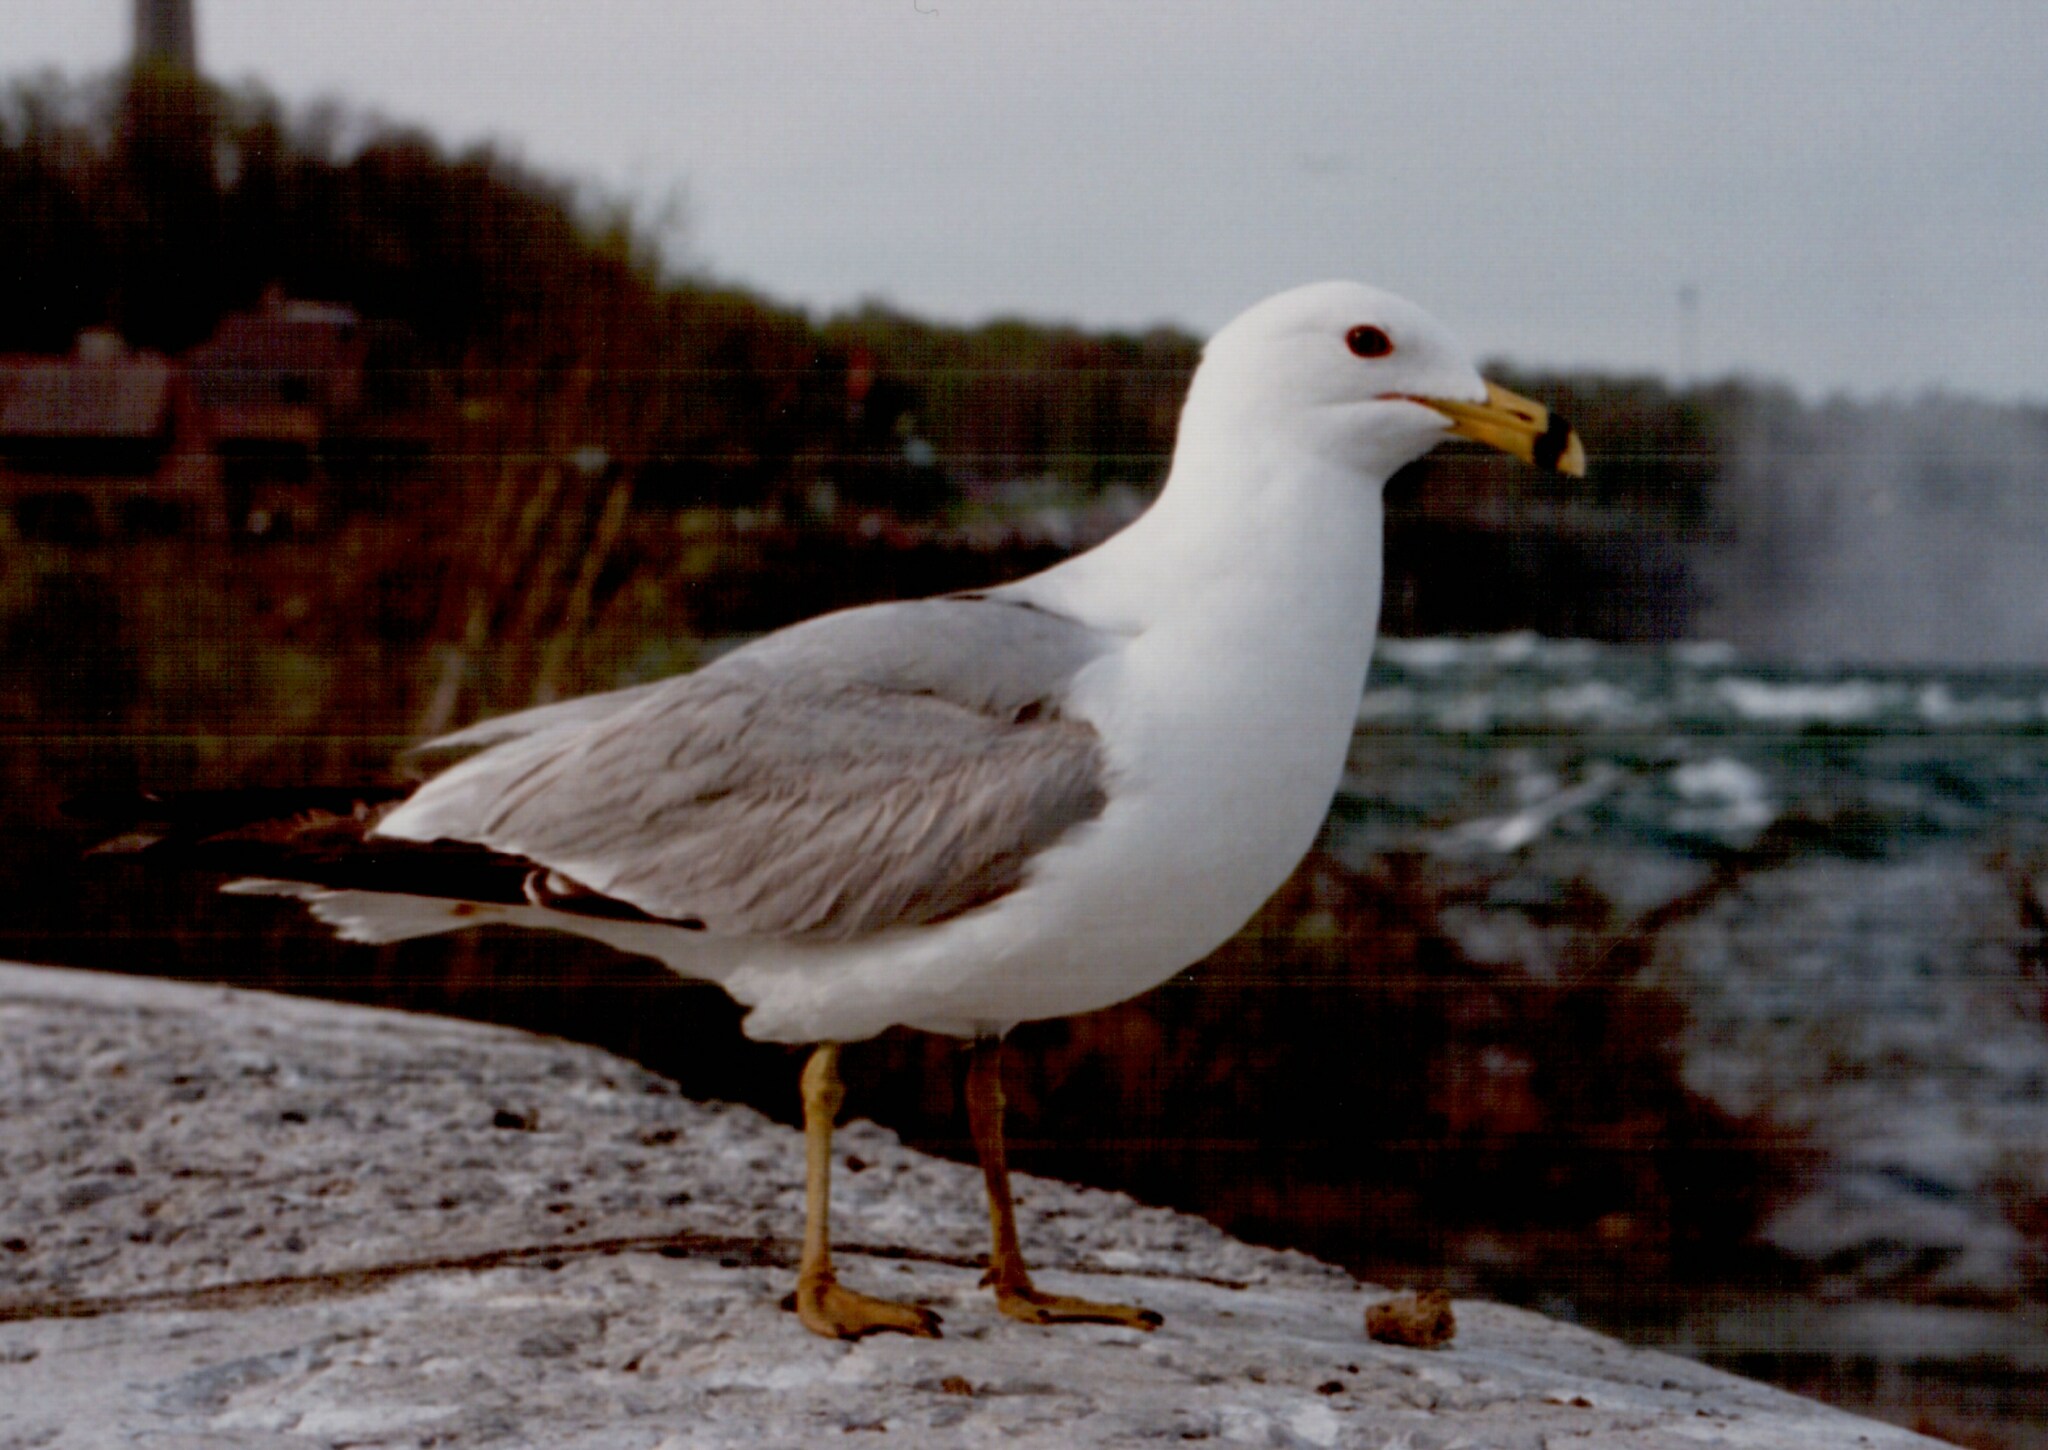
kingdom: Animalia
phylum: Chordata
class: Aves
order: Charadriiformes
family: Laridae
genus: Larus
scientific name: Larus delawarensis
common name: Ring-billed gull
